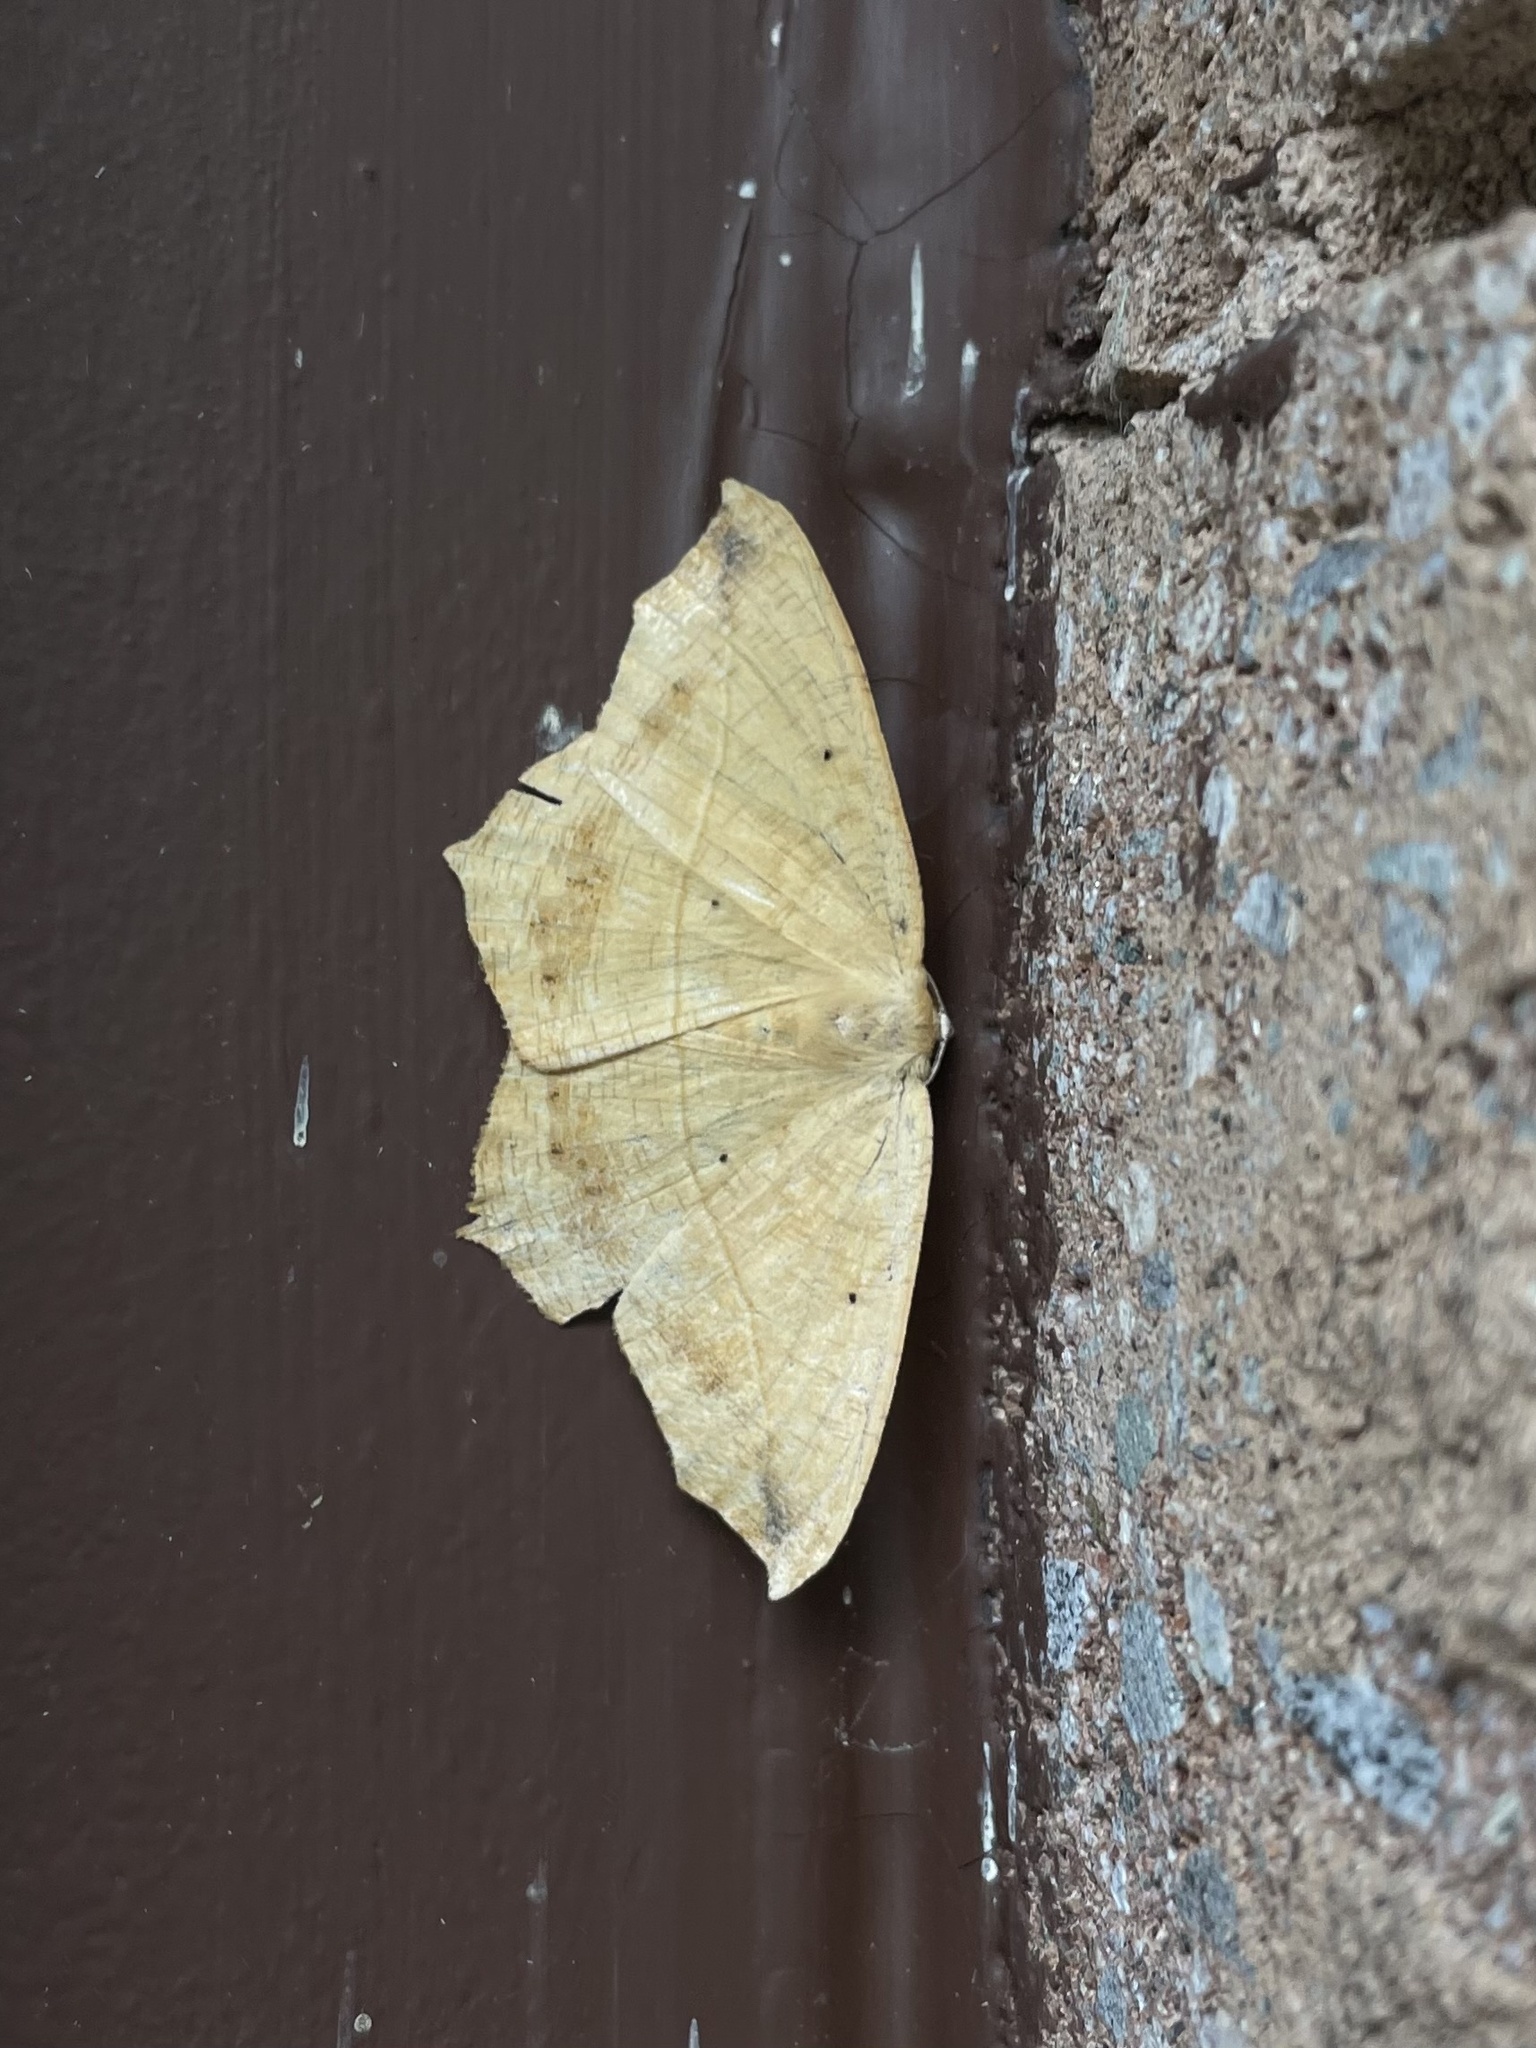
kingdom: Animalia
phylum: Arthropoda
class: Insecta
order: Lepidoptera
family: Geometridae
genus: Prochoerodes
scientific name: Prochoerodes lineola
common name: Large maple spanworm
